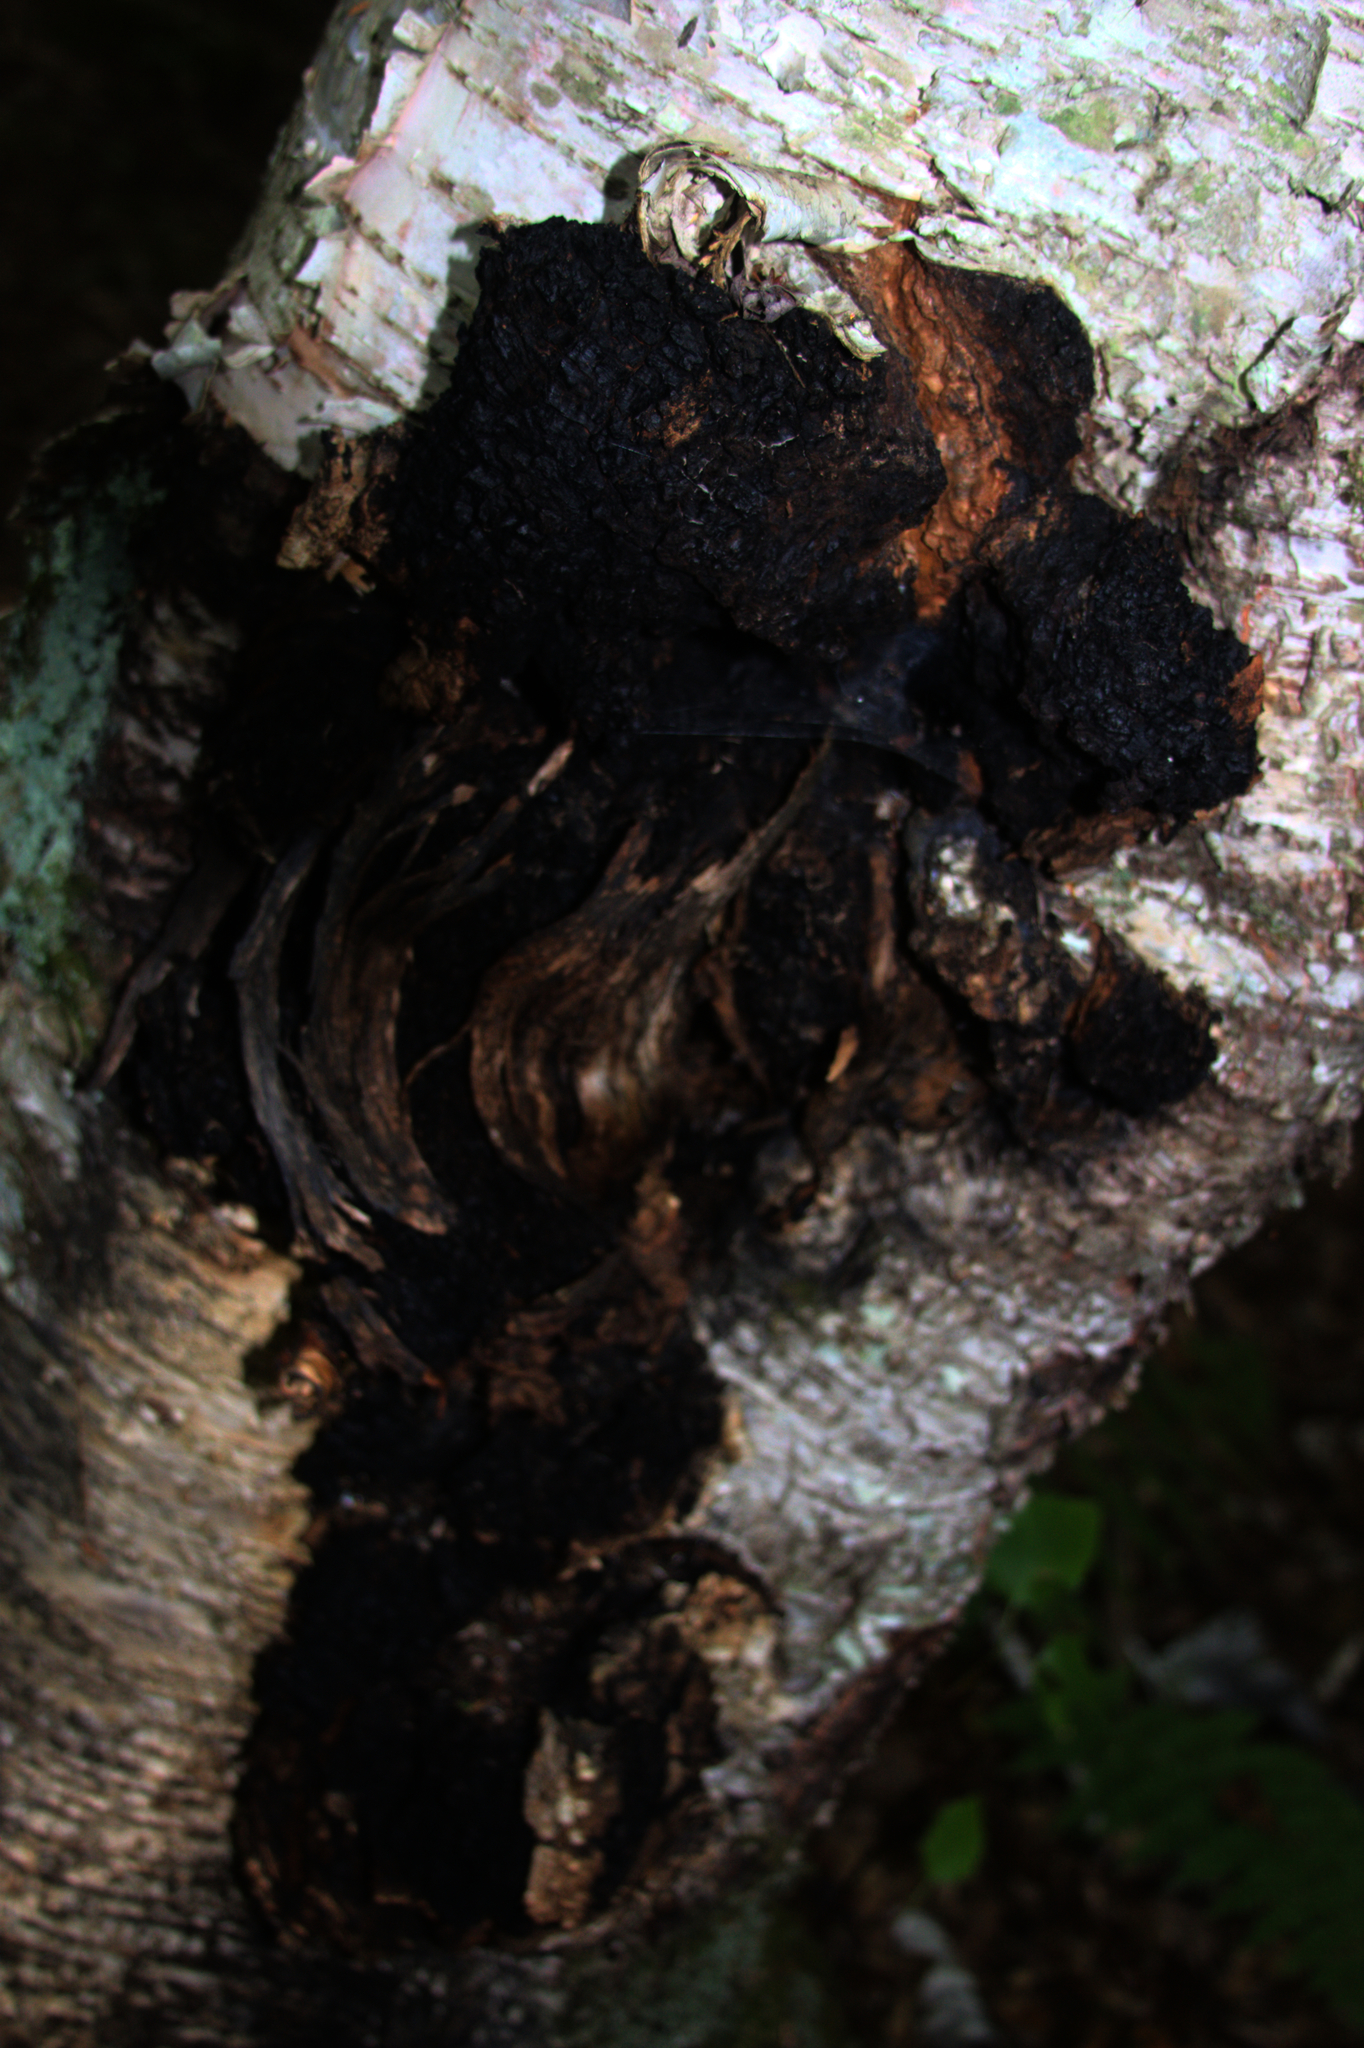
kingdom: Fungi
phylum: Basidiomycota
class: Agaricomycetes
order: Hymenochaetales
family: Hymenochaetaceae
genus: Inonotus
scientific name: Inonotus obliquus
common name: Chaga
